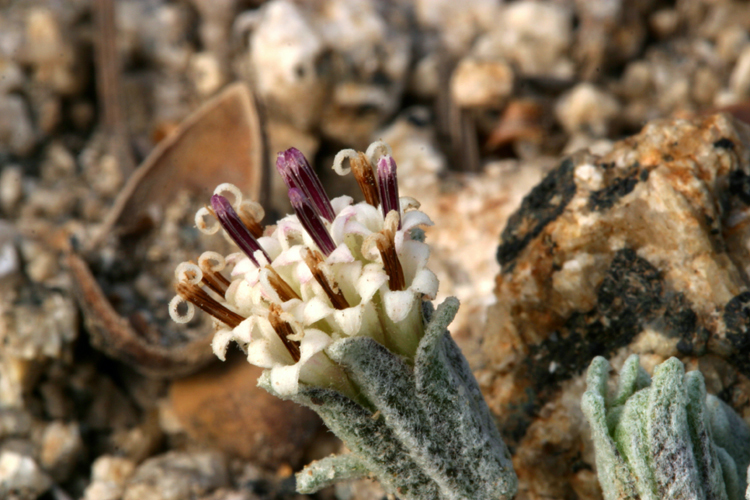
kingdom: Plantae
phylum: Tracheophyta
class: Magnoliopsida
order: Asterales
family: Asteraceae
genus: Chaenactis
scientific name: Chaenactis alpigena
